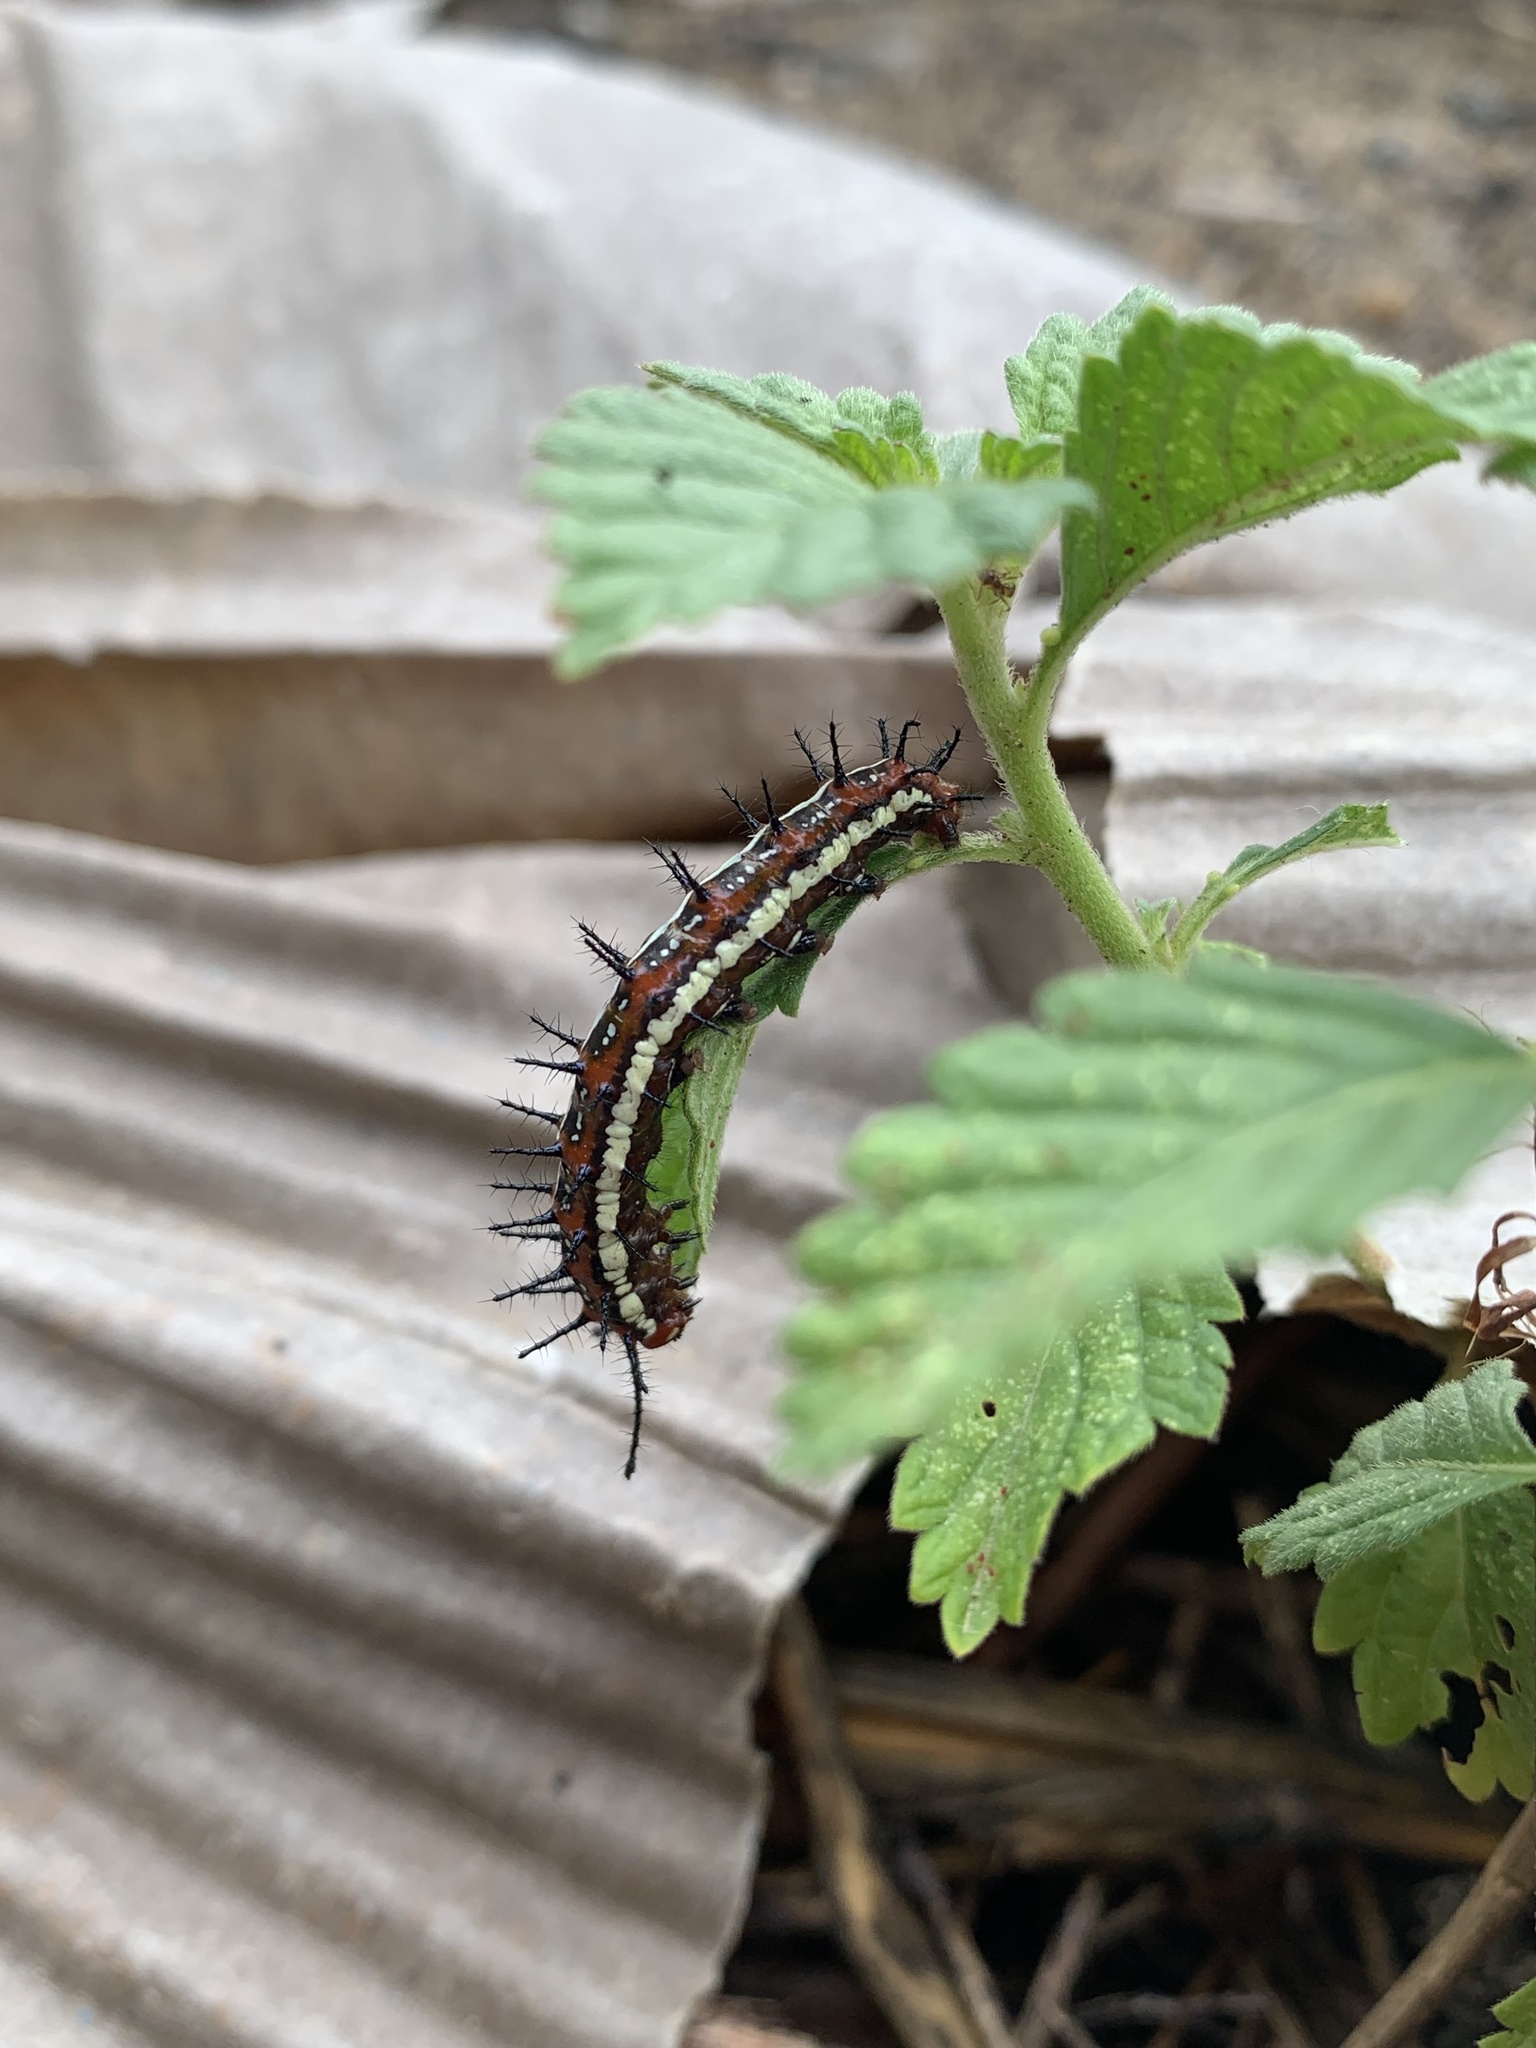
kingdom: Animalia
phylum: Arthropoda
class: Insecta
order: Lepidoptera
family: Nymphalidae
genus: Euptoieta
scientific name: Euptoieta hegesia
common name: Mexican fritillary
